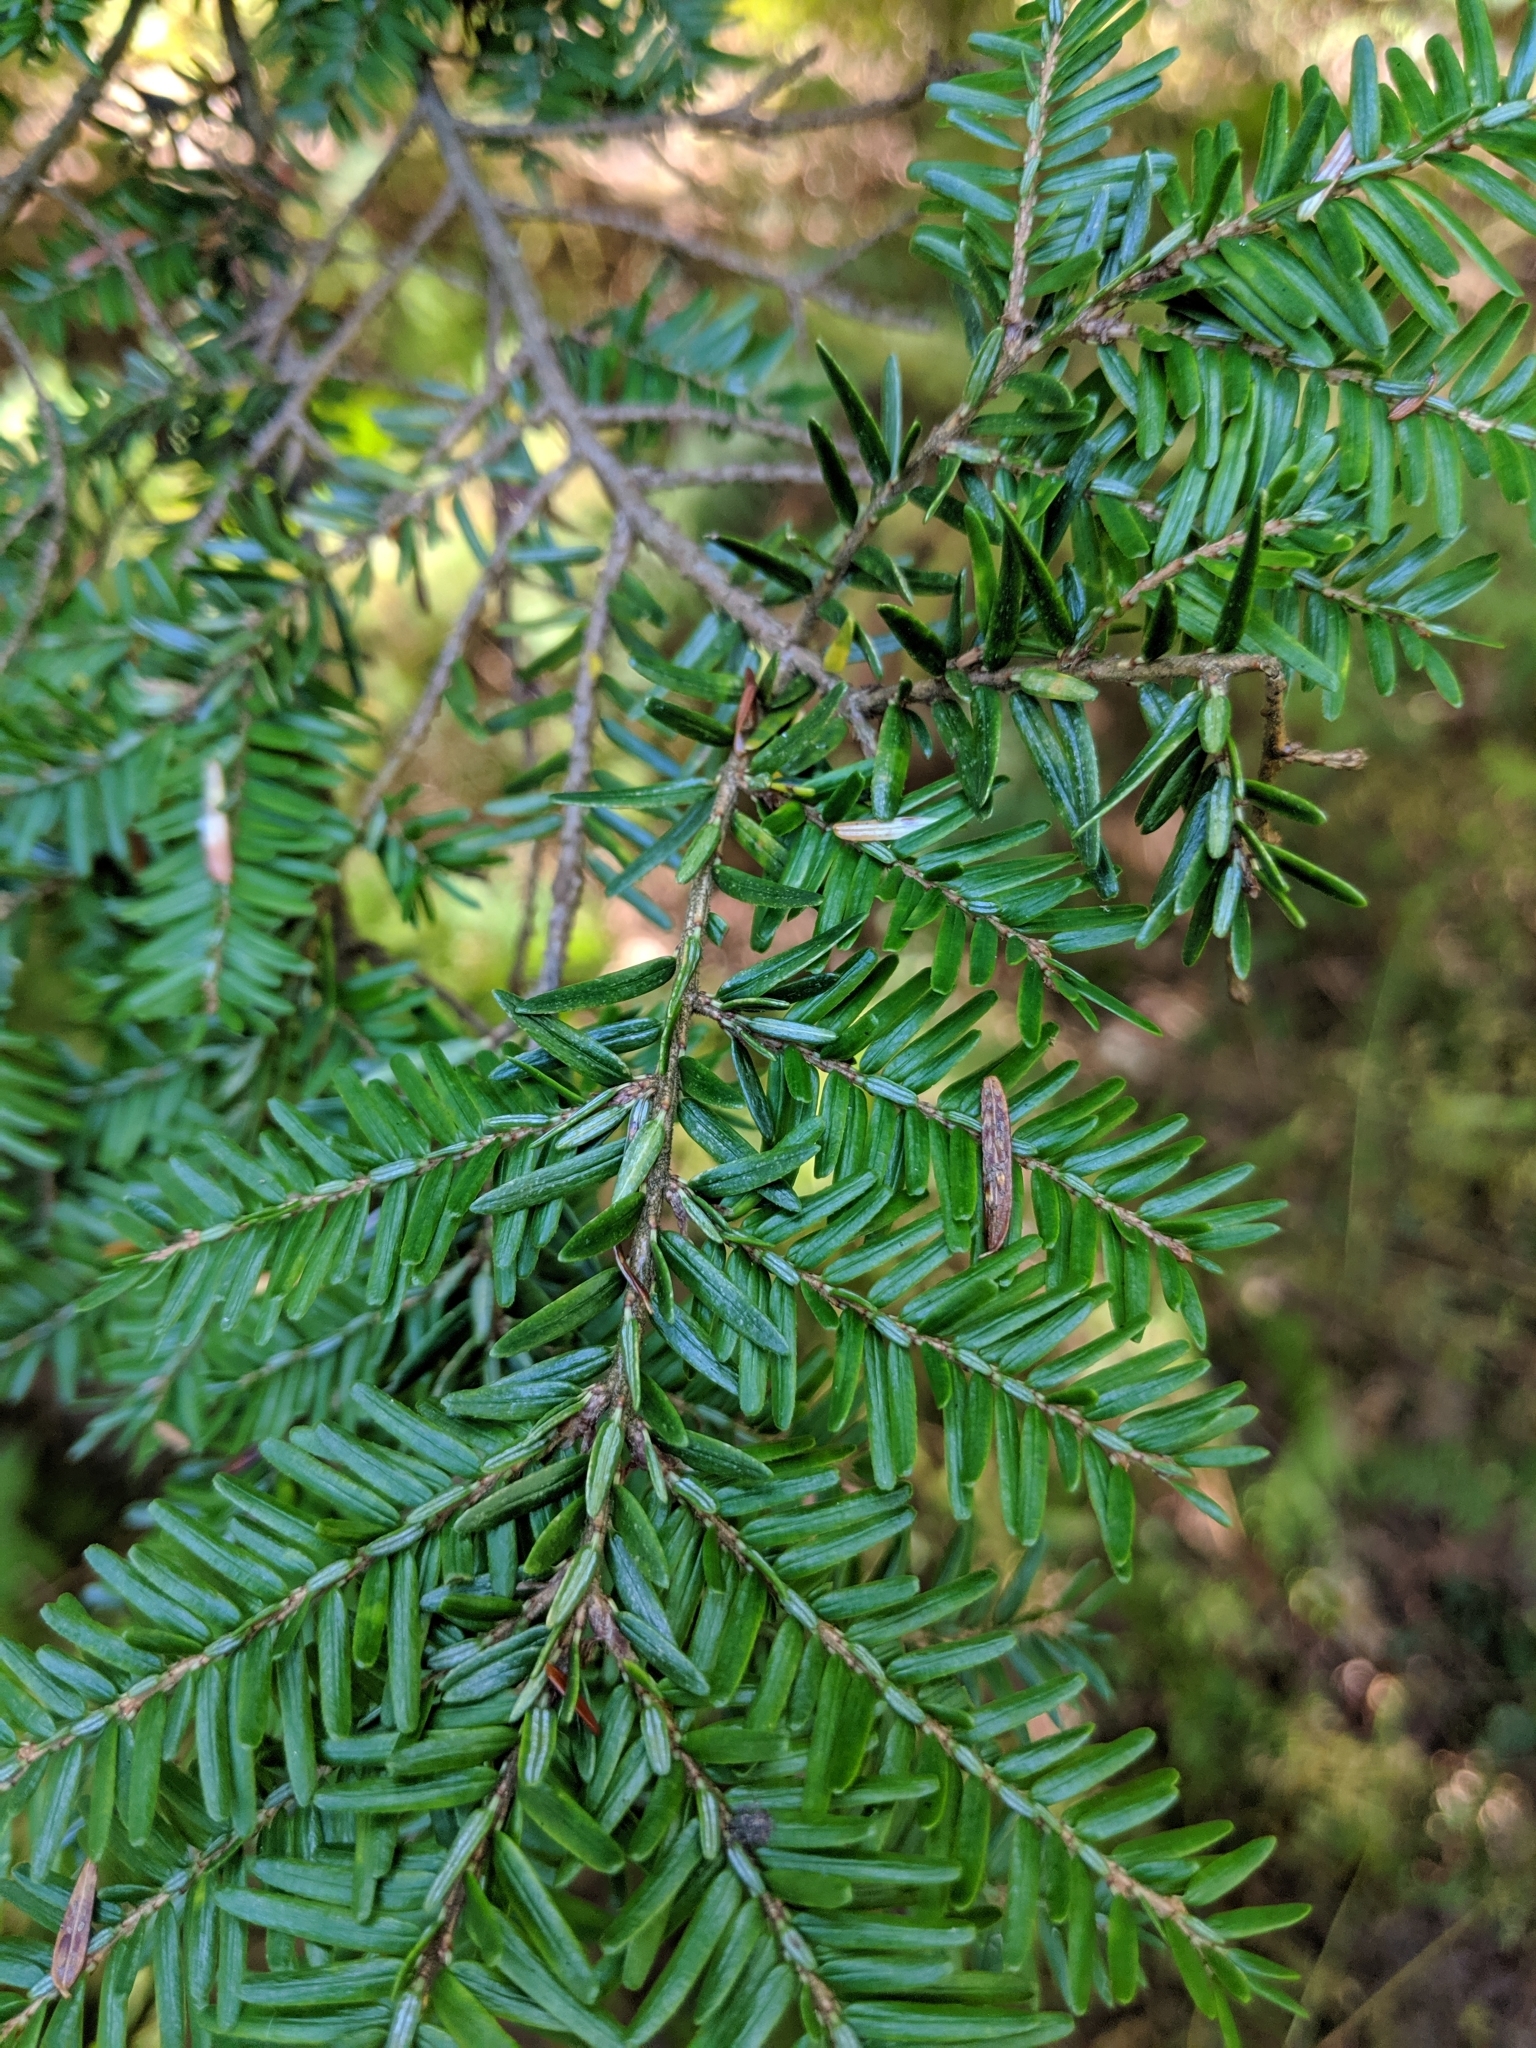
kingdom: Plantae
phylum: Tracheophyta
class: Pinopsida
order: Pinales
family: Pinaceae
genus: Tsuga
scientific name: Tsuga canadensis
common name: Eastern hemlock
